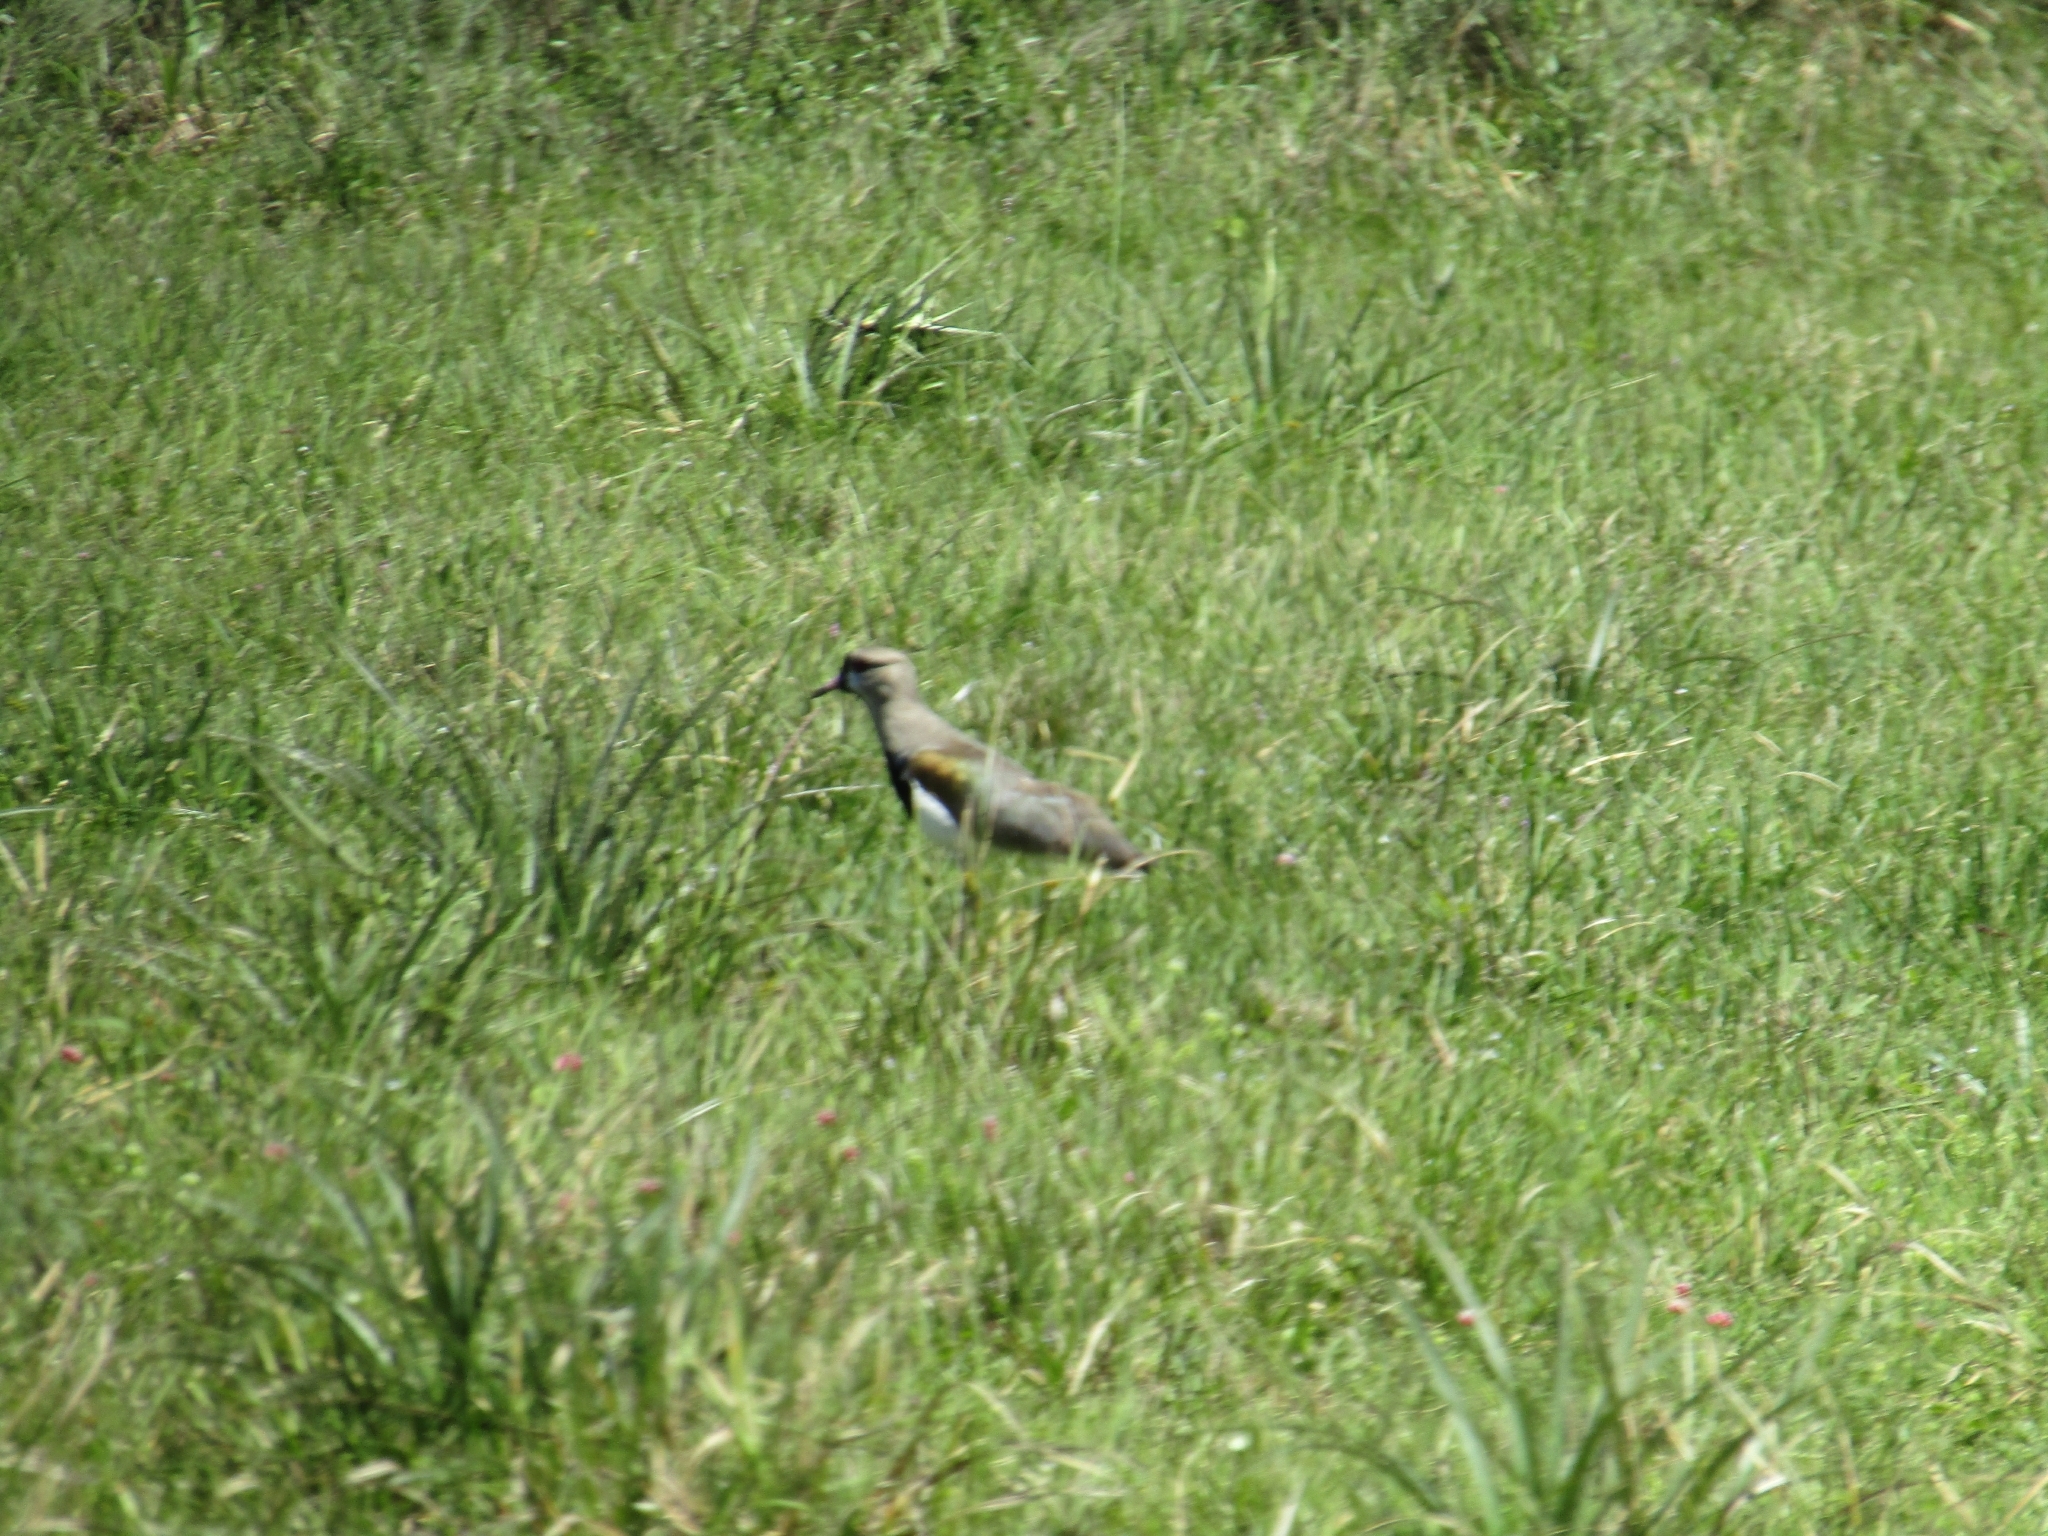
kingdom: Animalia
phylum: Chordata
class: Aves
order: Charadriiformes
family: Charadriidae
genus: Vanellus
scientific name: Vanellus chilensis
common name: Southern lapwing
